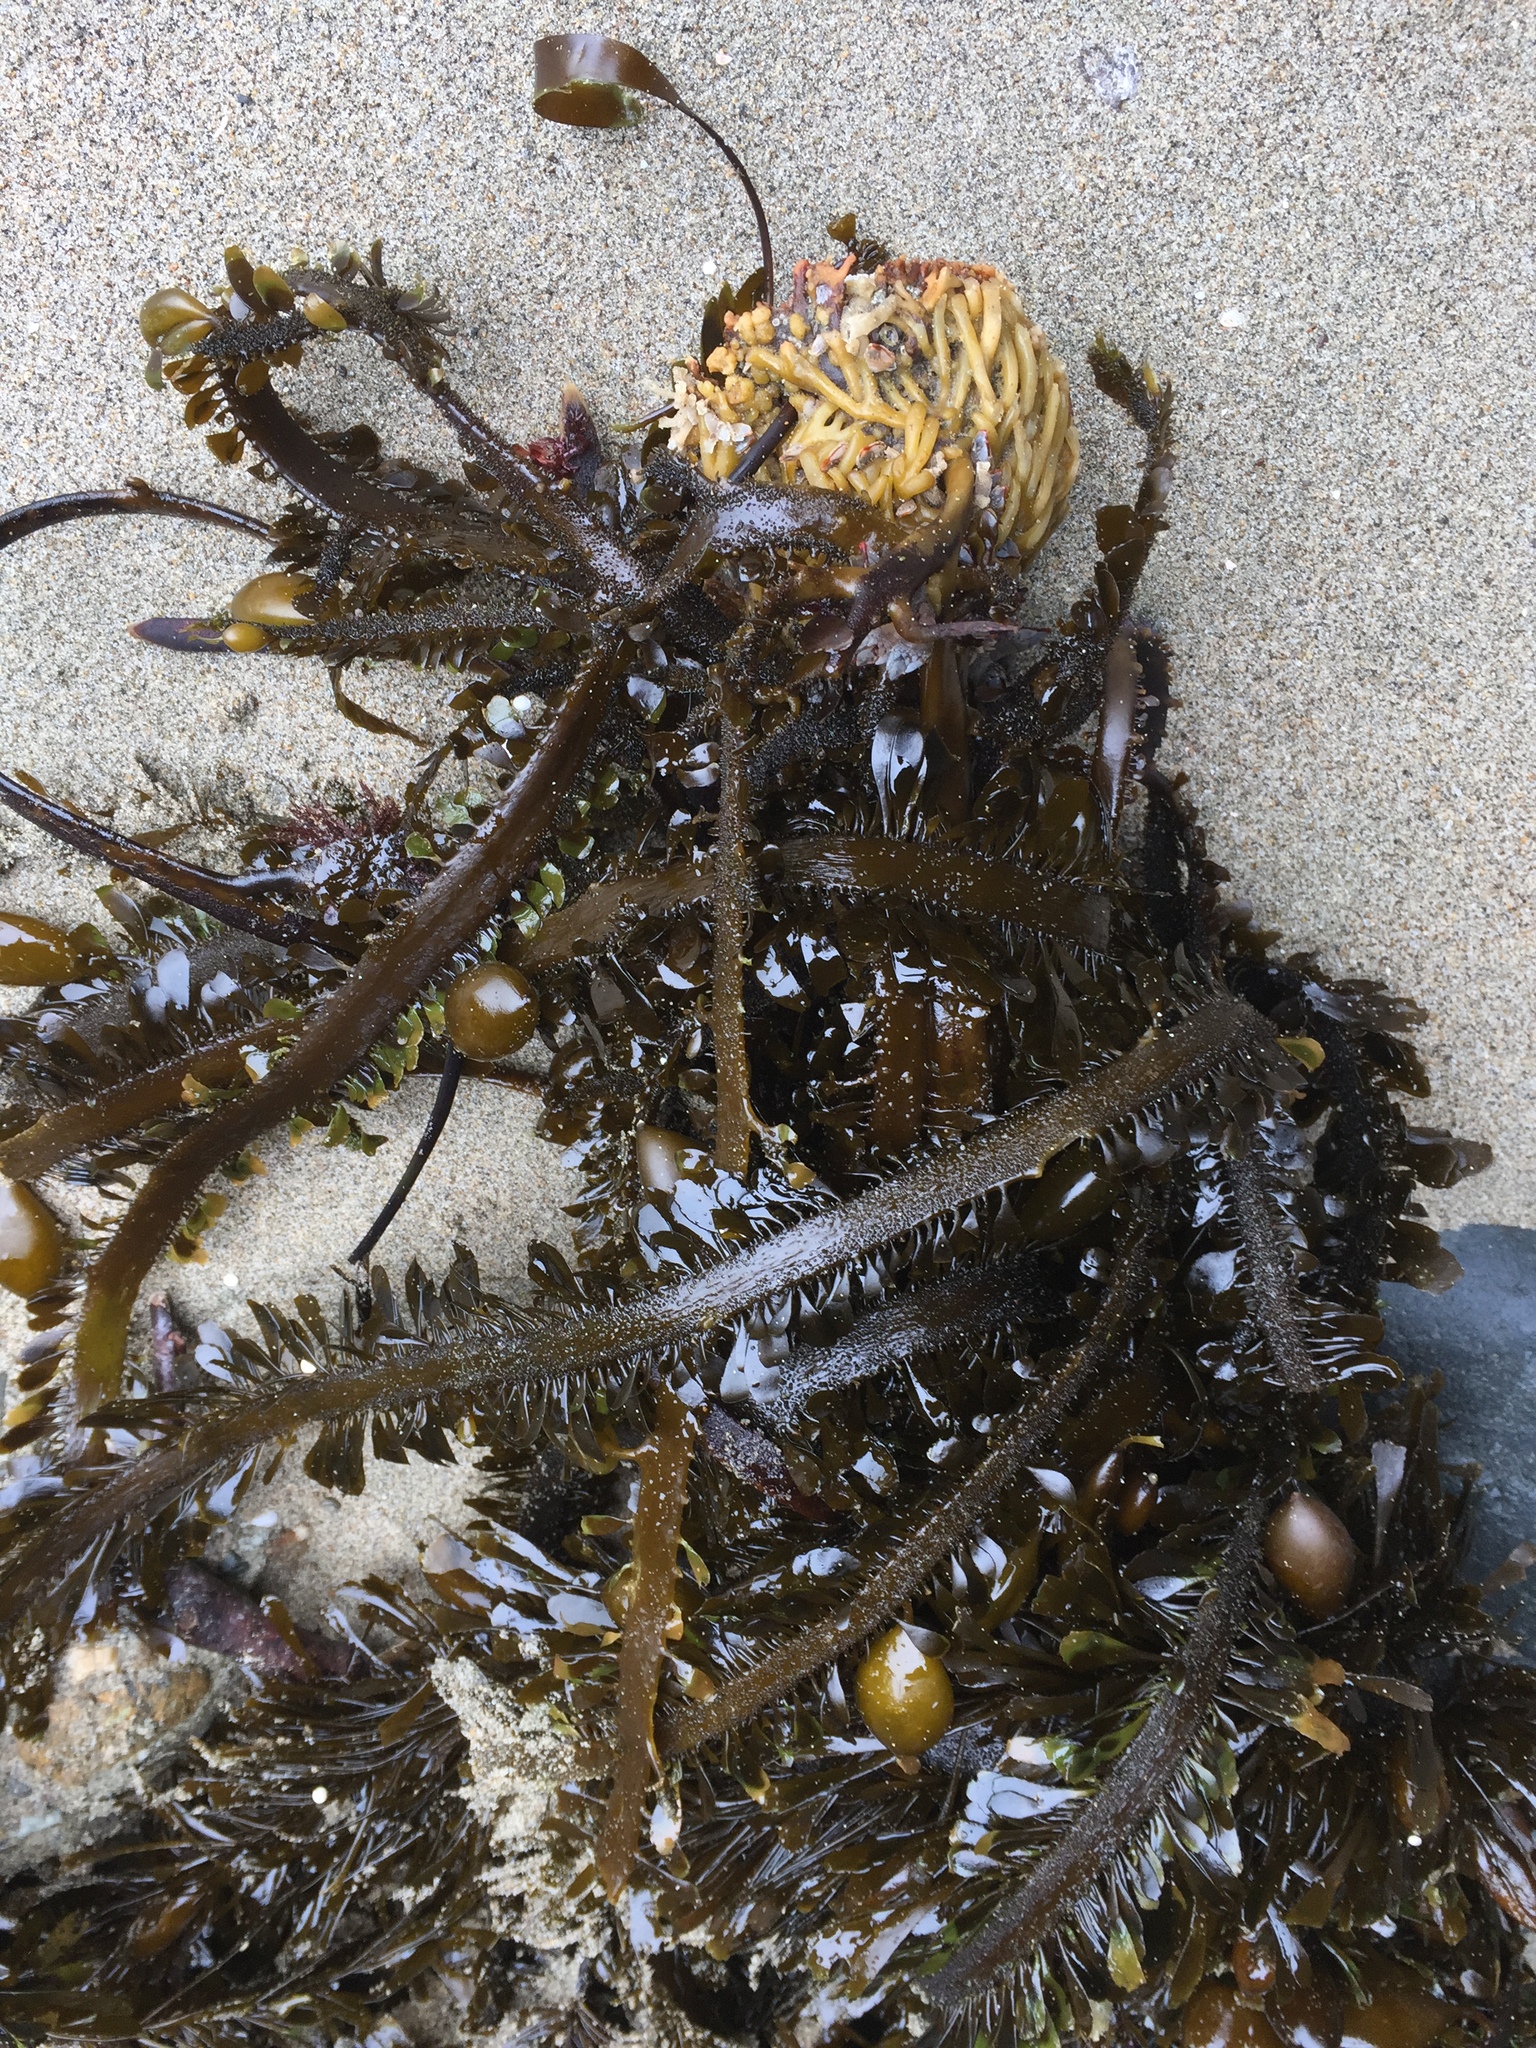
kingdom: Chromista
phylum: Ochrophyta
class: Phaeophyceae
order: Laminariales
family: Lessoniaceae
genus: Egregia
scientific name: Egregia menziesii
